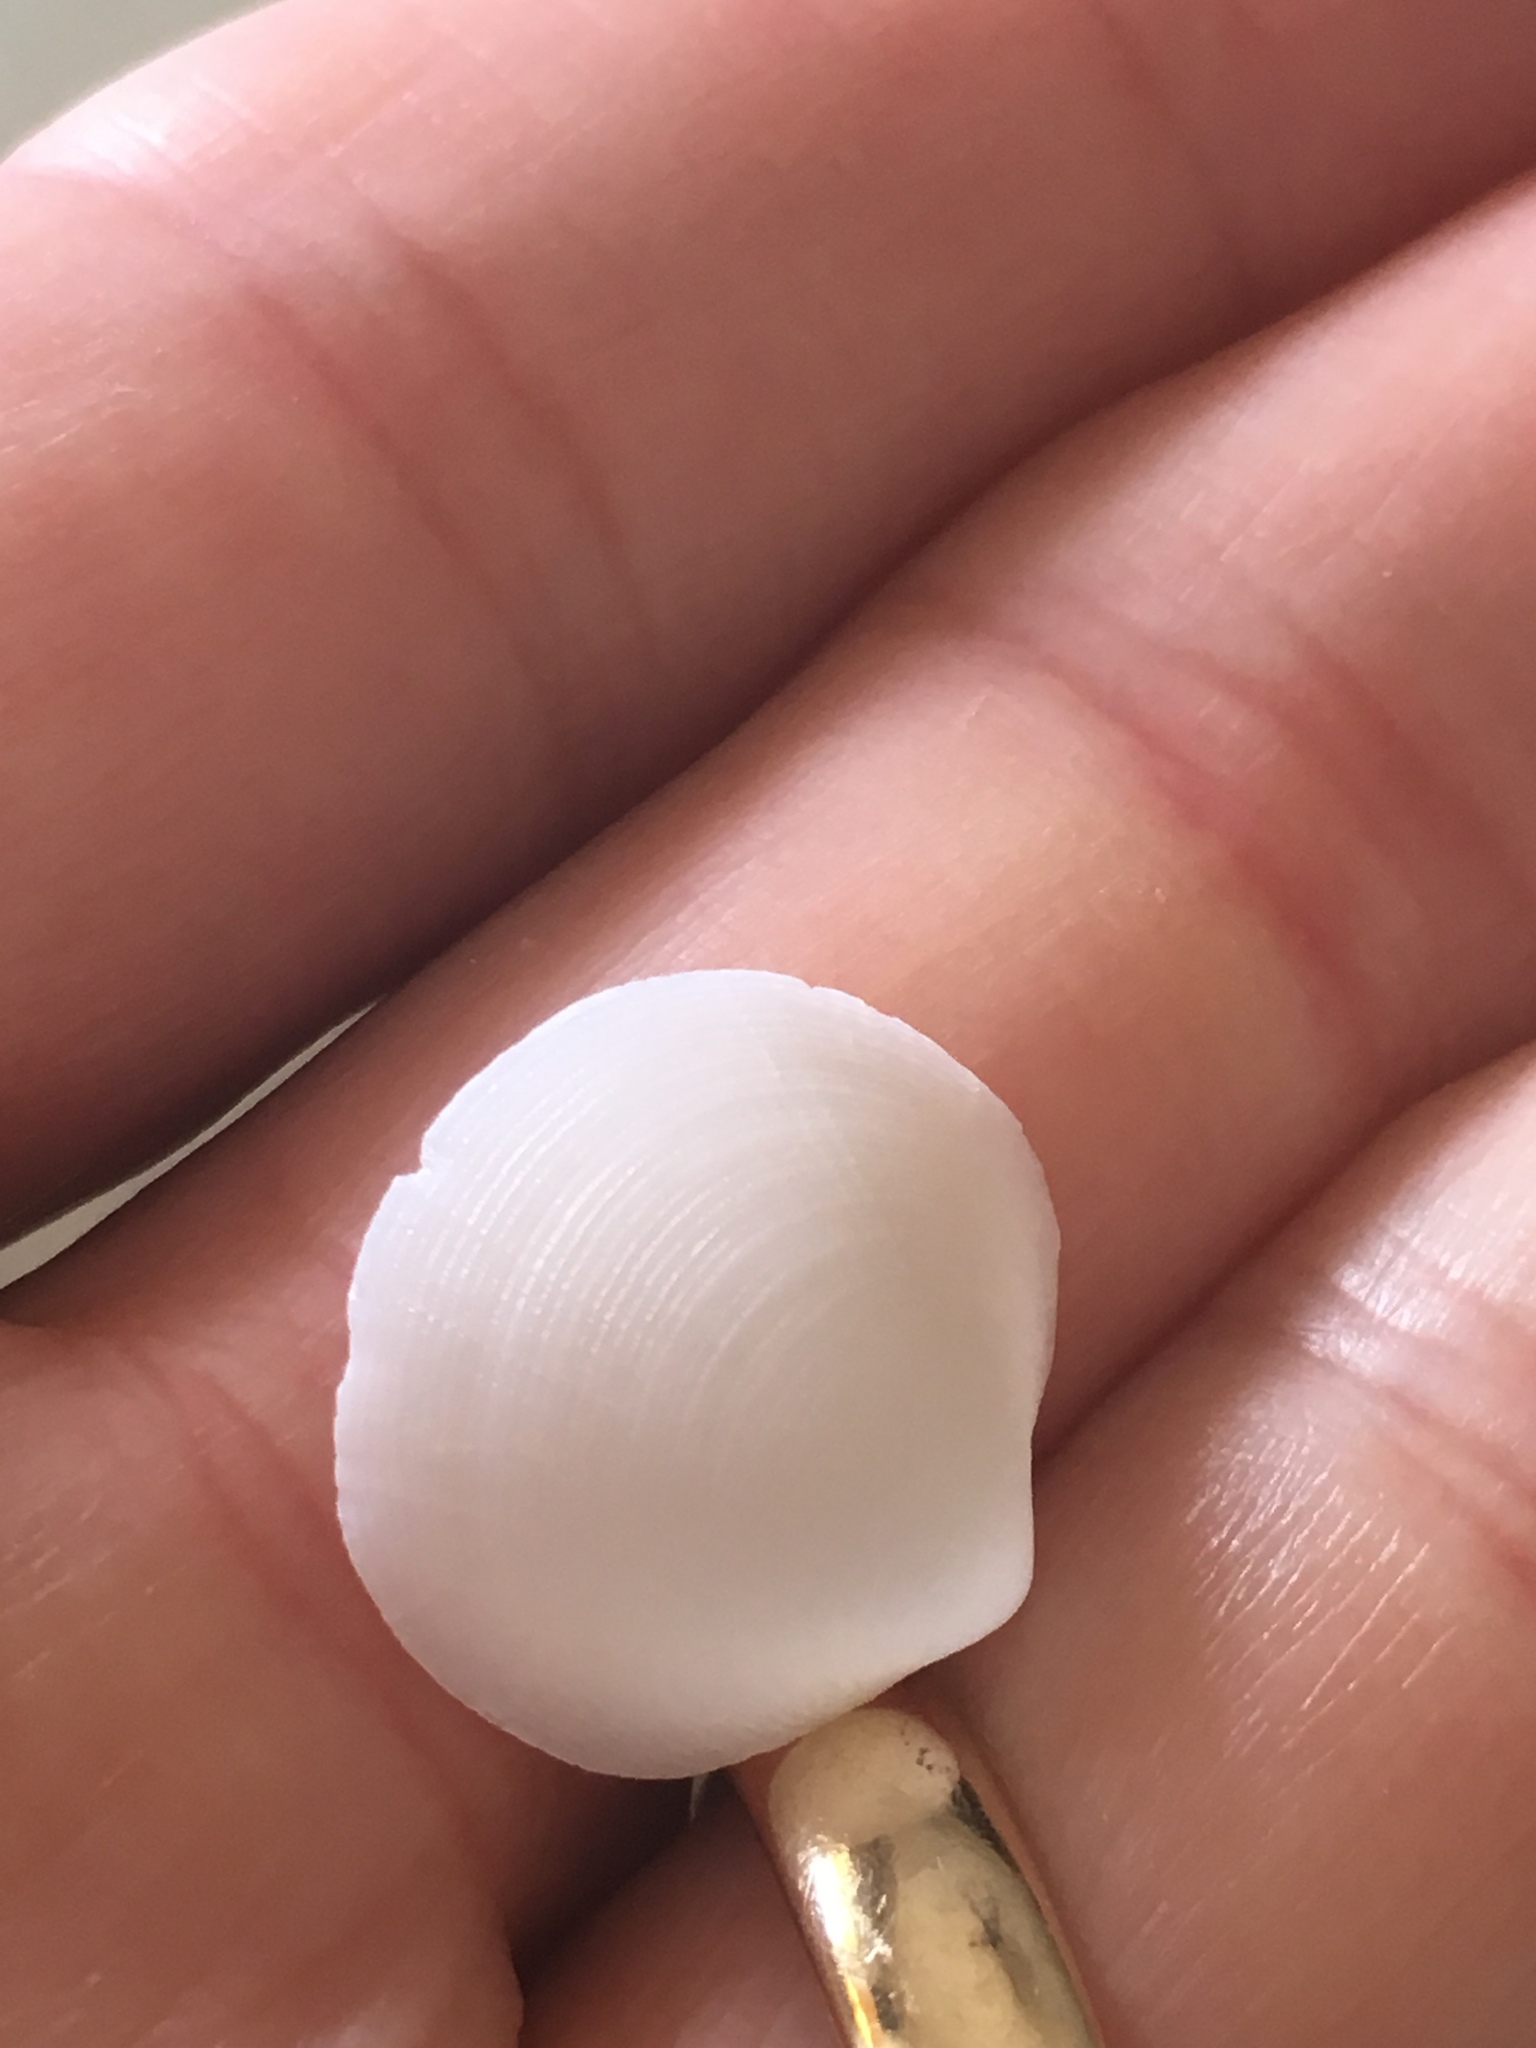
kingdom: Animalia
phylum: Mollusca
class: Bivalvia
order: Lucinida
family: Lucinidae
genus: Callucina
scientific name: Callucina keenae
